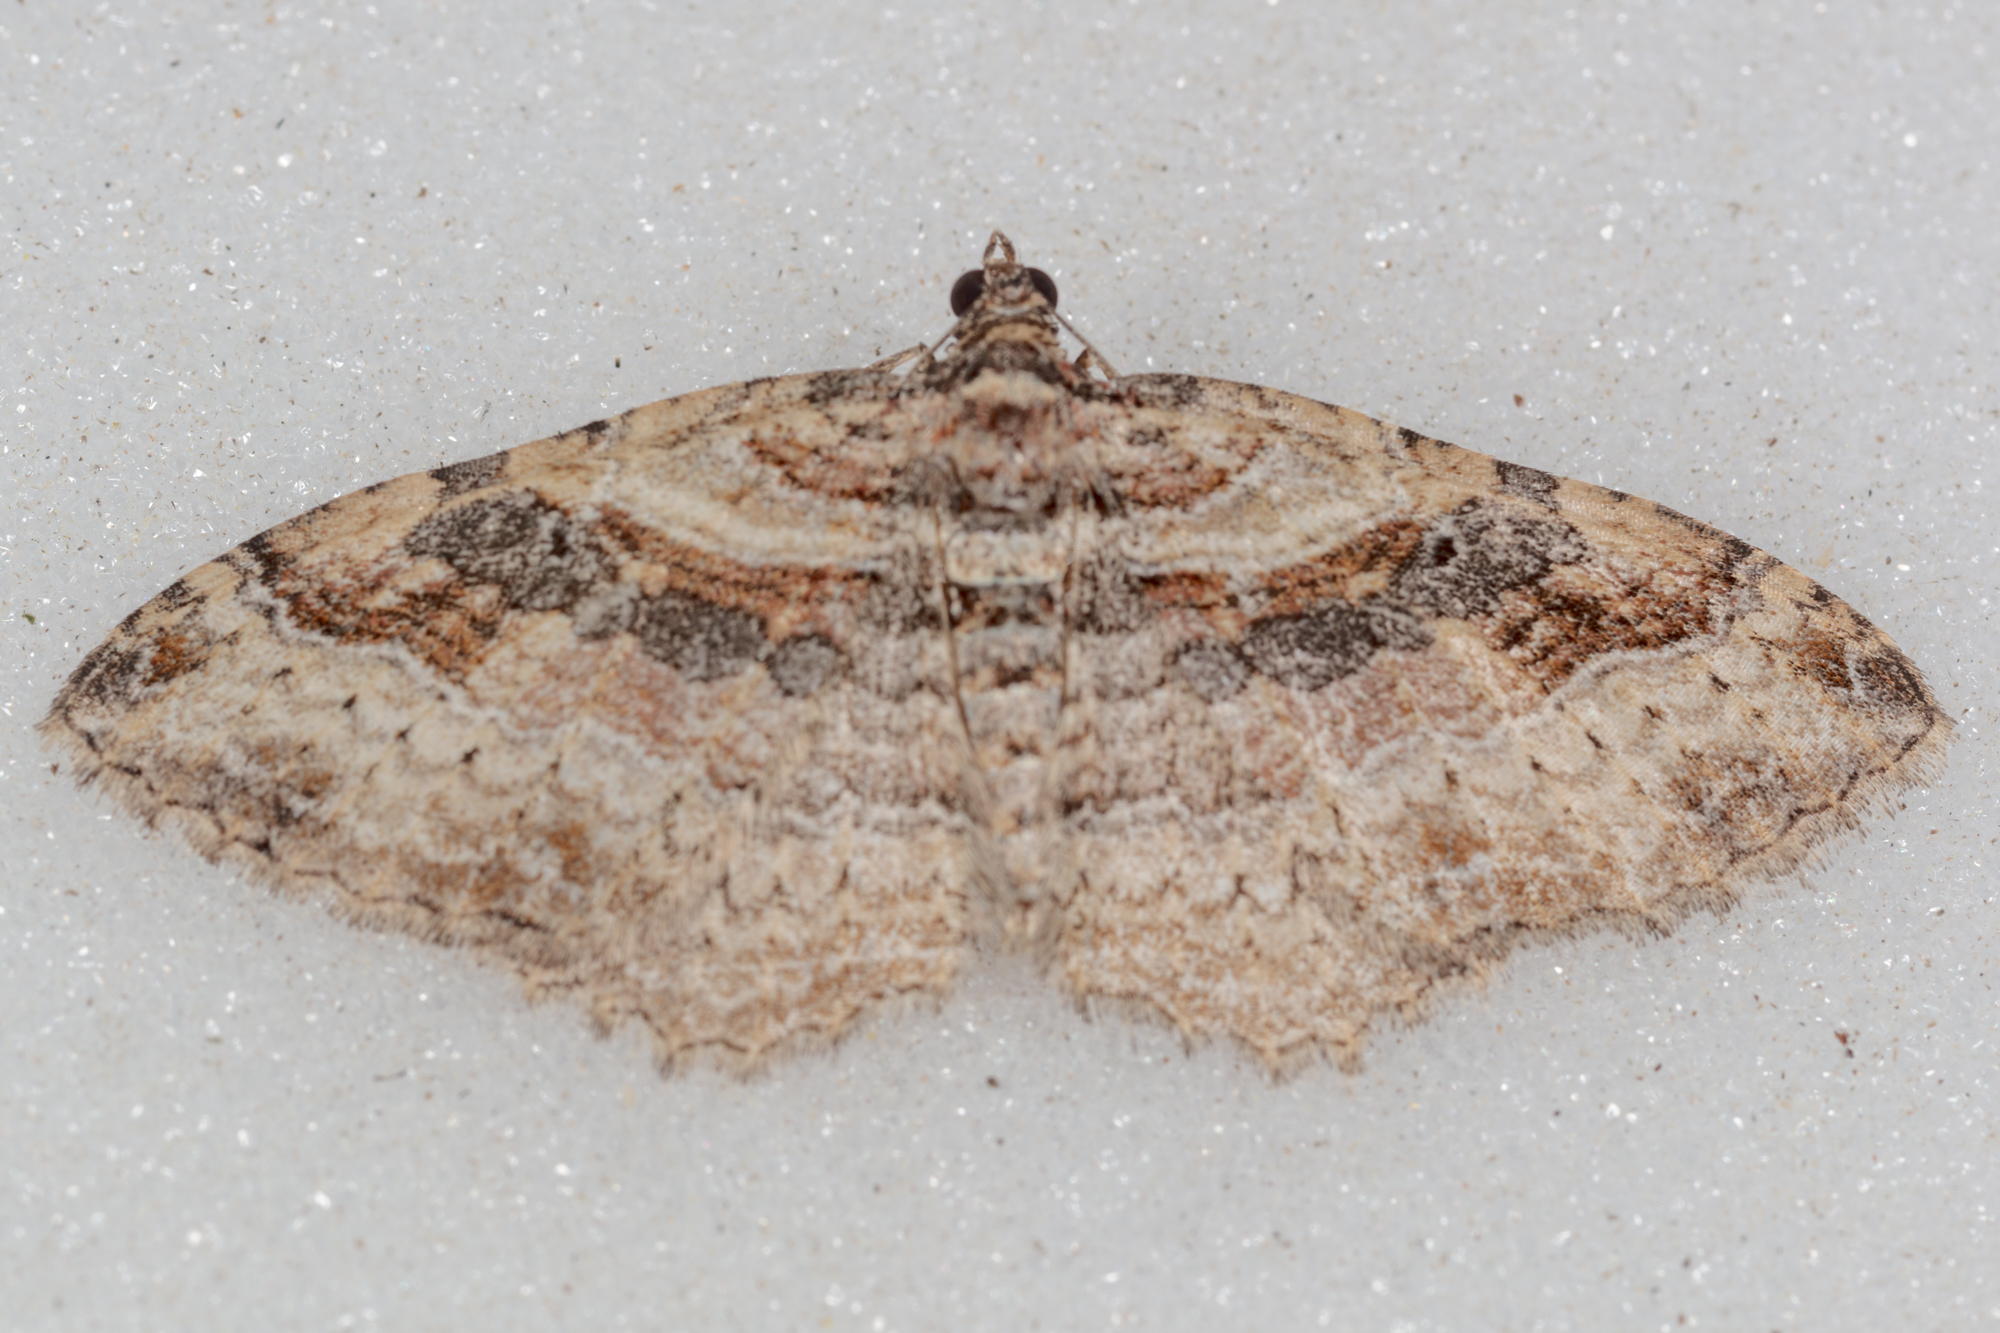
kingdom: Animalia
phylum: Arthropoda
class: Insecta
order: Lepidoptera
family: Geometridae
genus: Costaconvexa
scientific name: Costaconvexa centrostrigaria
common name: Bent-line carpet
